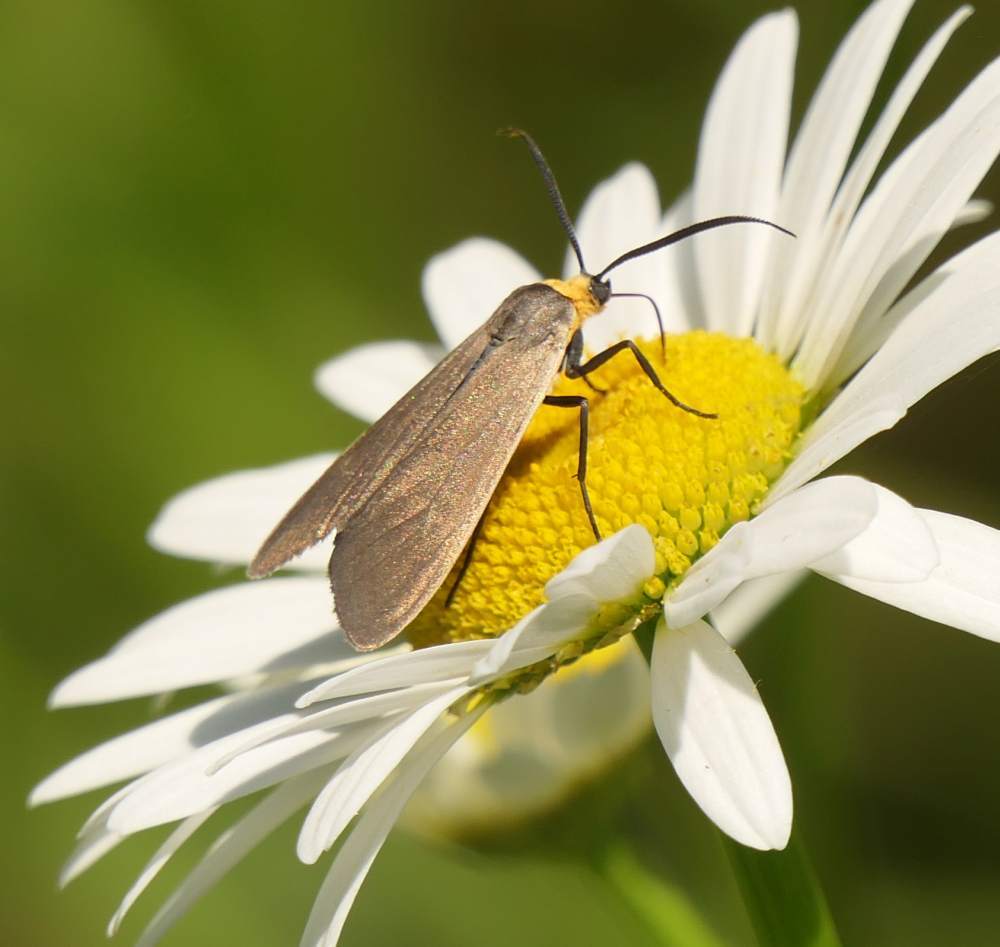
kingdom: Animalia
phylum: Arthropoda
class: Insecta
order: Lepidoptera
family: Erebidae
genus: Cisseps
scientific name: Cisseps fulvicollis
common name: Yellow-collared scape moth
